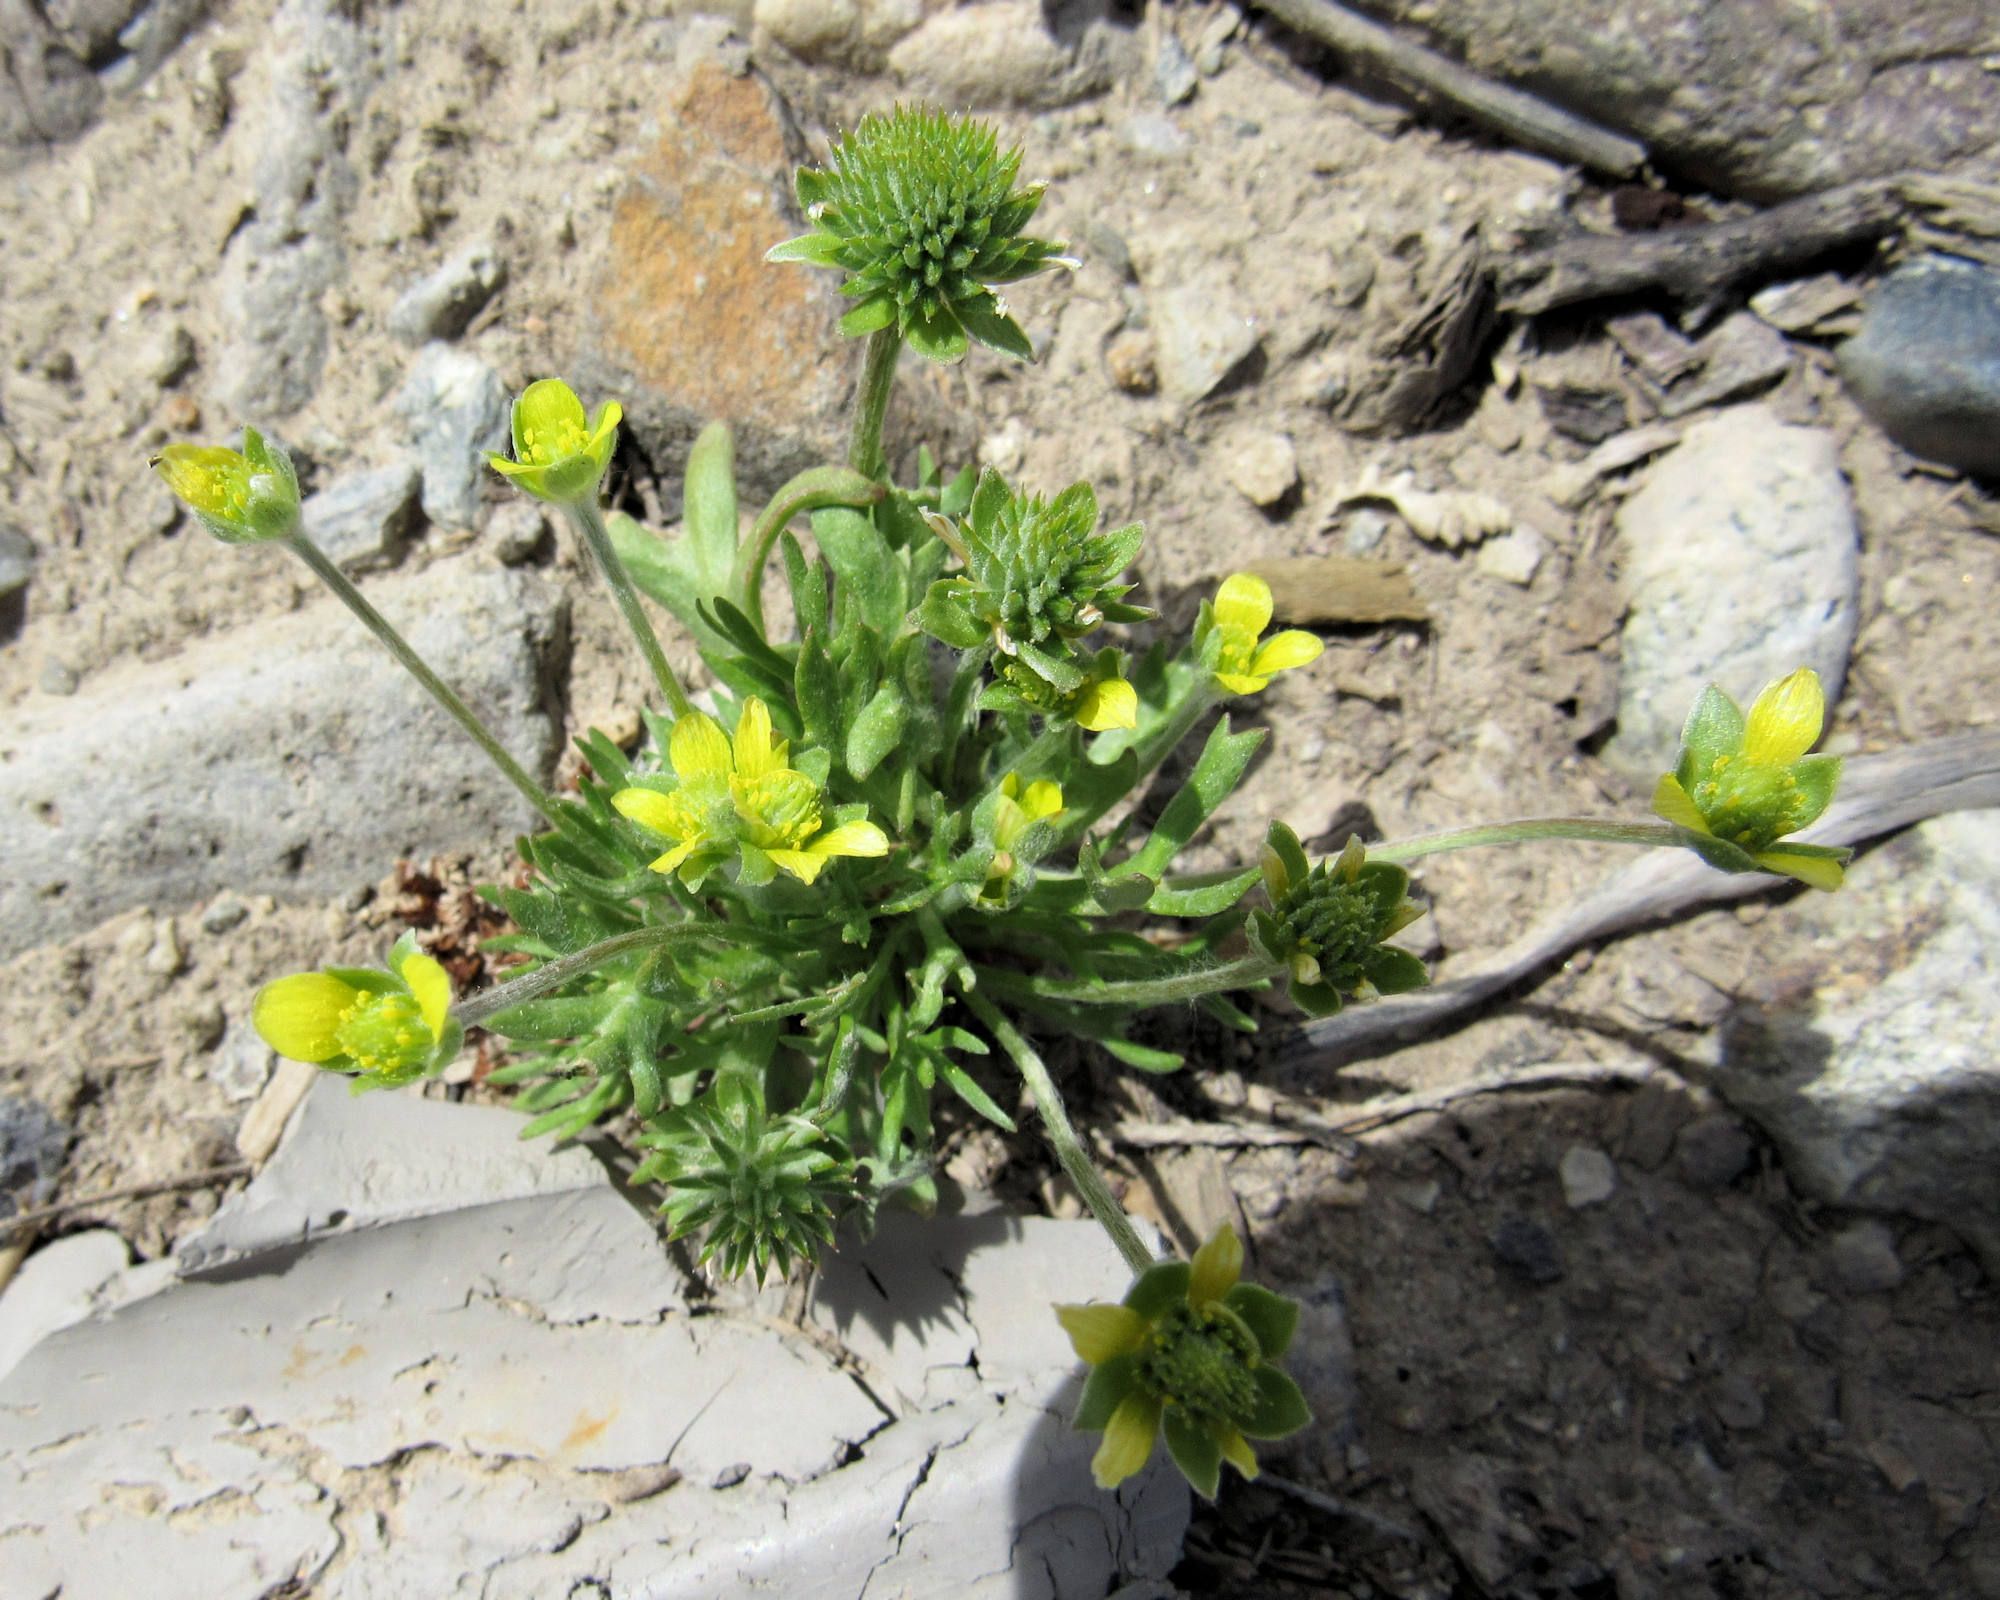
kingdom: Plantae
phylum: Tracheophyta
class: Magnoliopsida
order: Ranunculales
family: Ranunculaceae
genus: Ceratocephala
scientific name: Ceratocephala orthoceras
